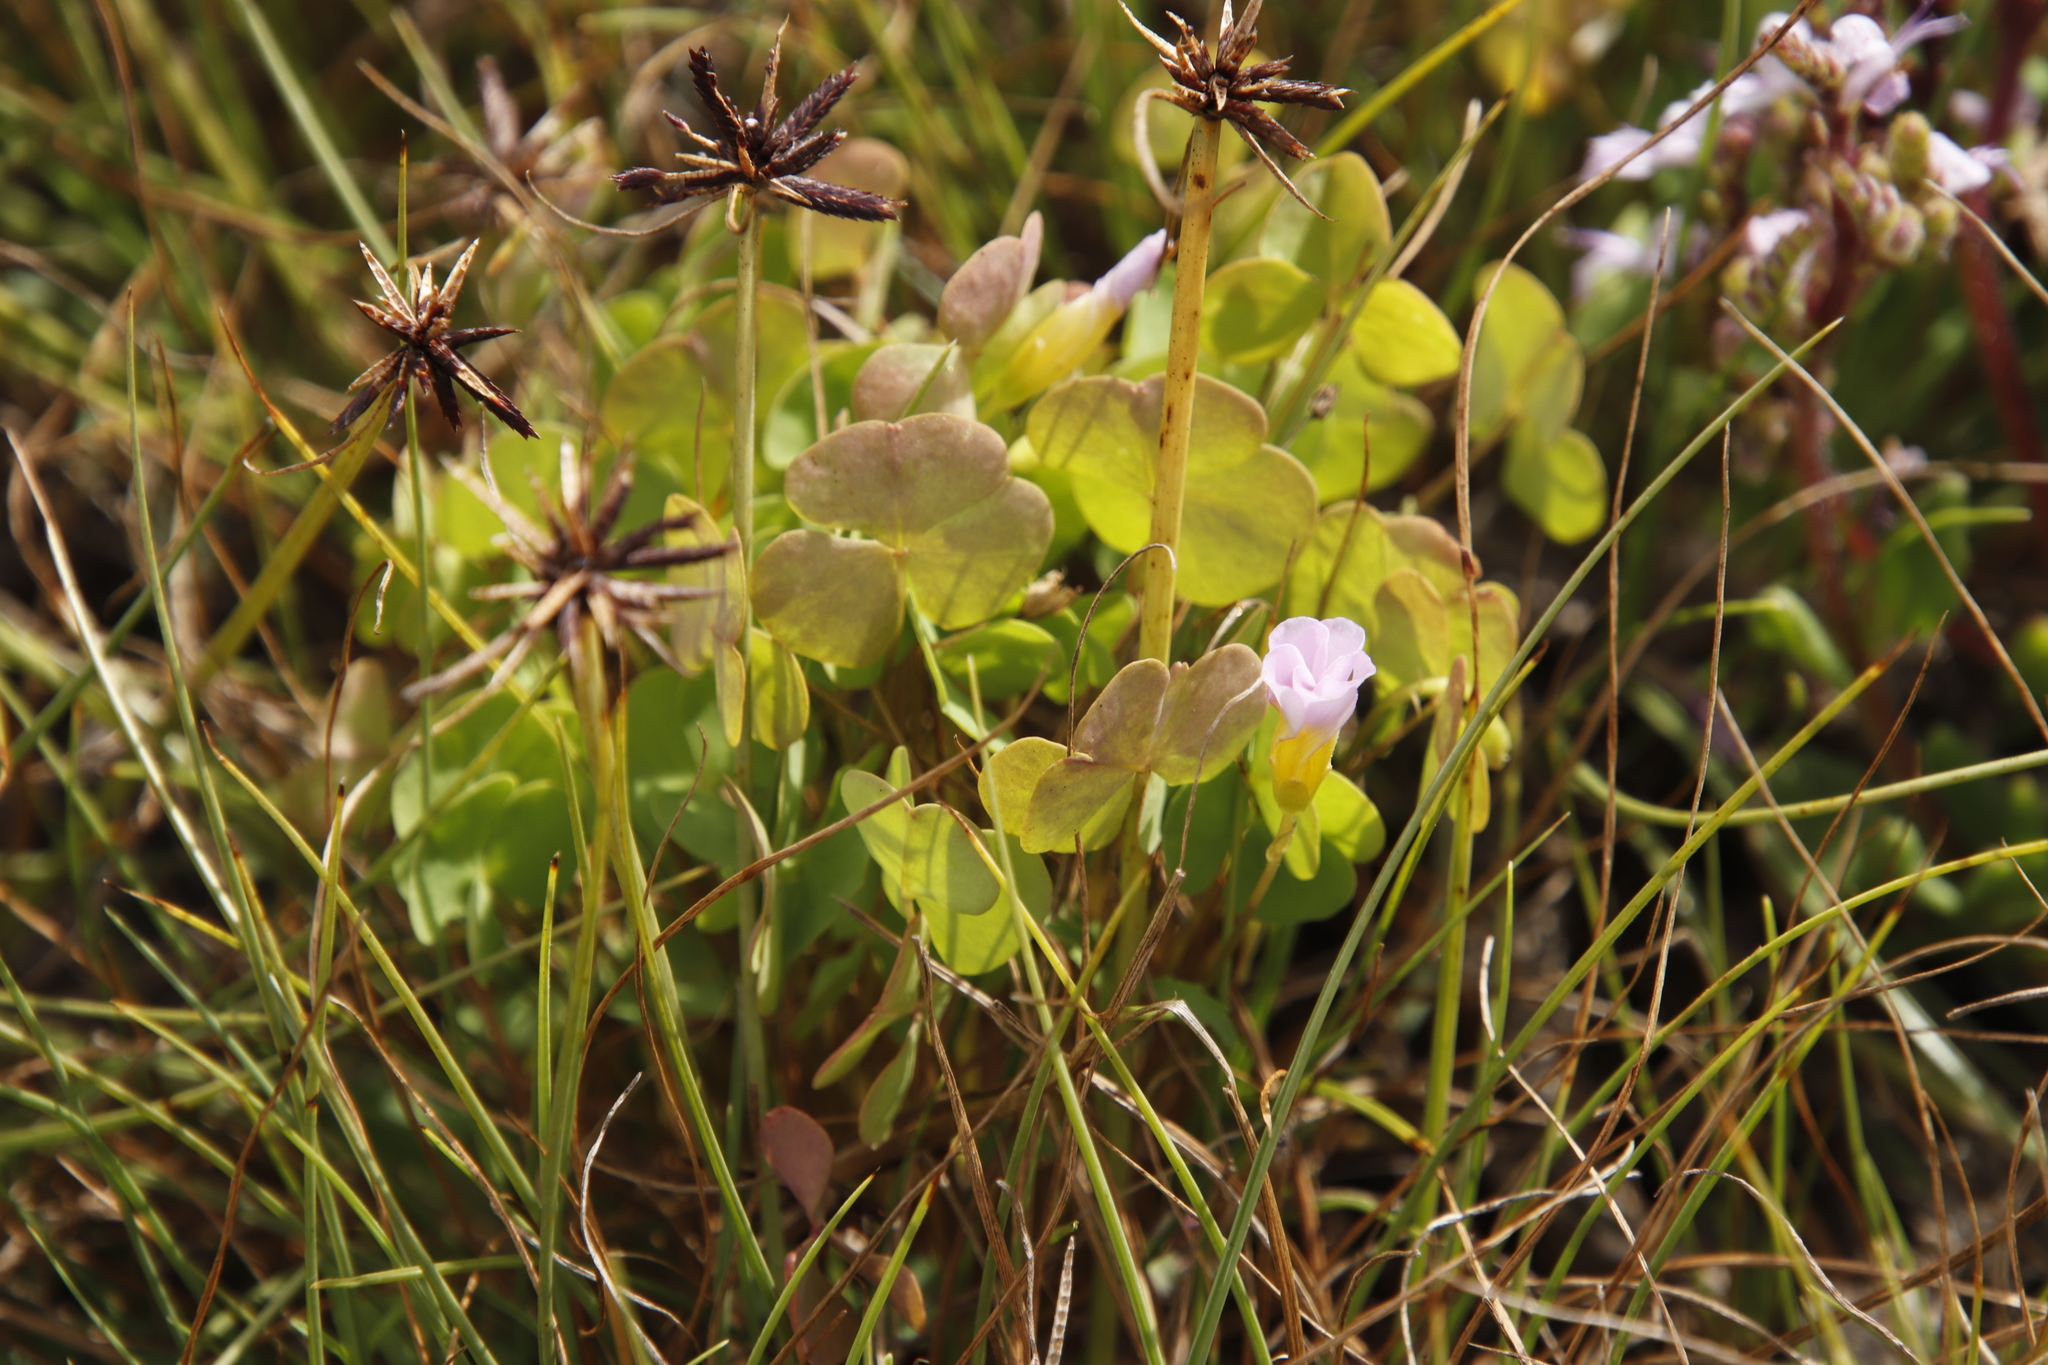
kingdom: Plantae
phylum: Tracheophyta
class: Magnoliopsida
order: Oxalidales
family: Oxalidaceae
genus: Oxalis
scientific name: Oxalis obliquifolia
